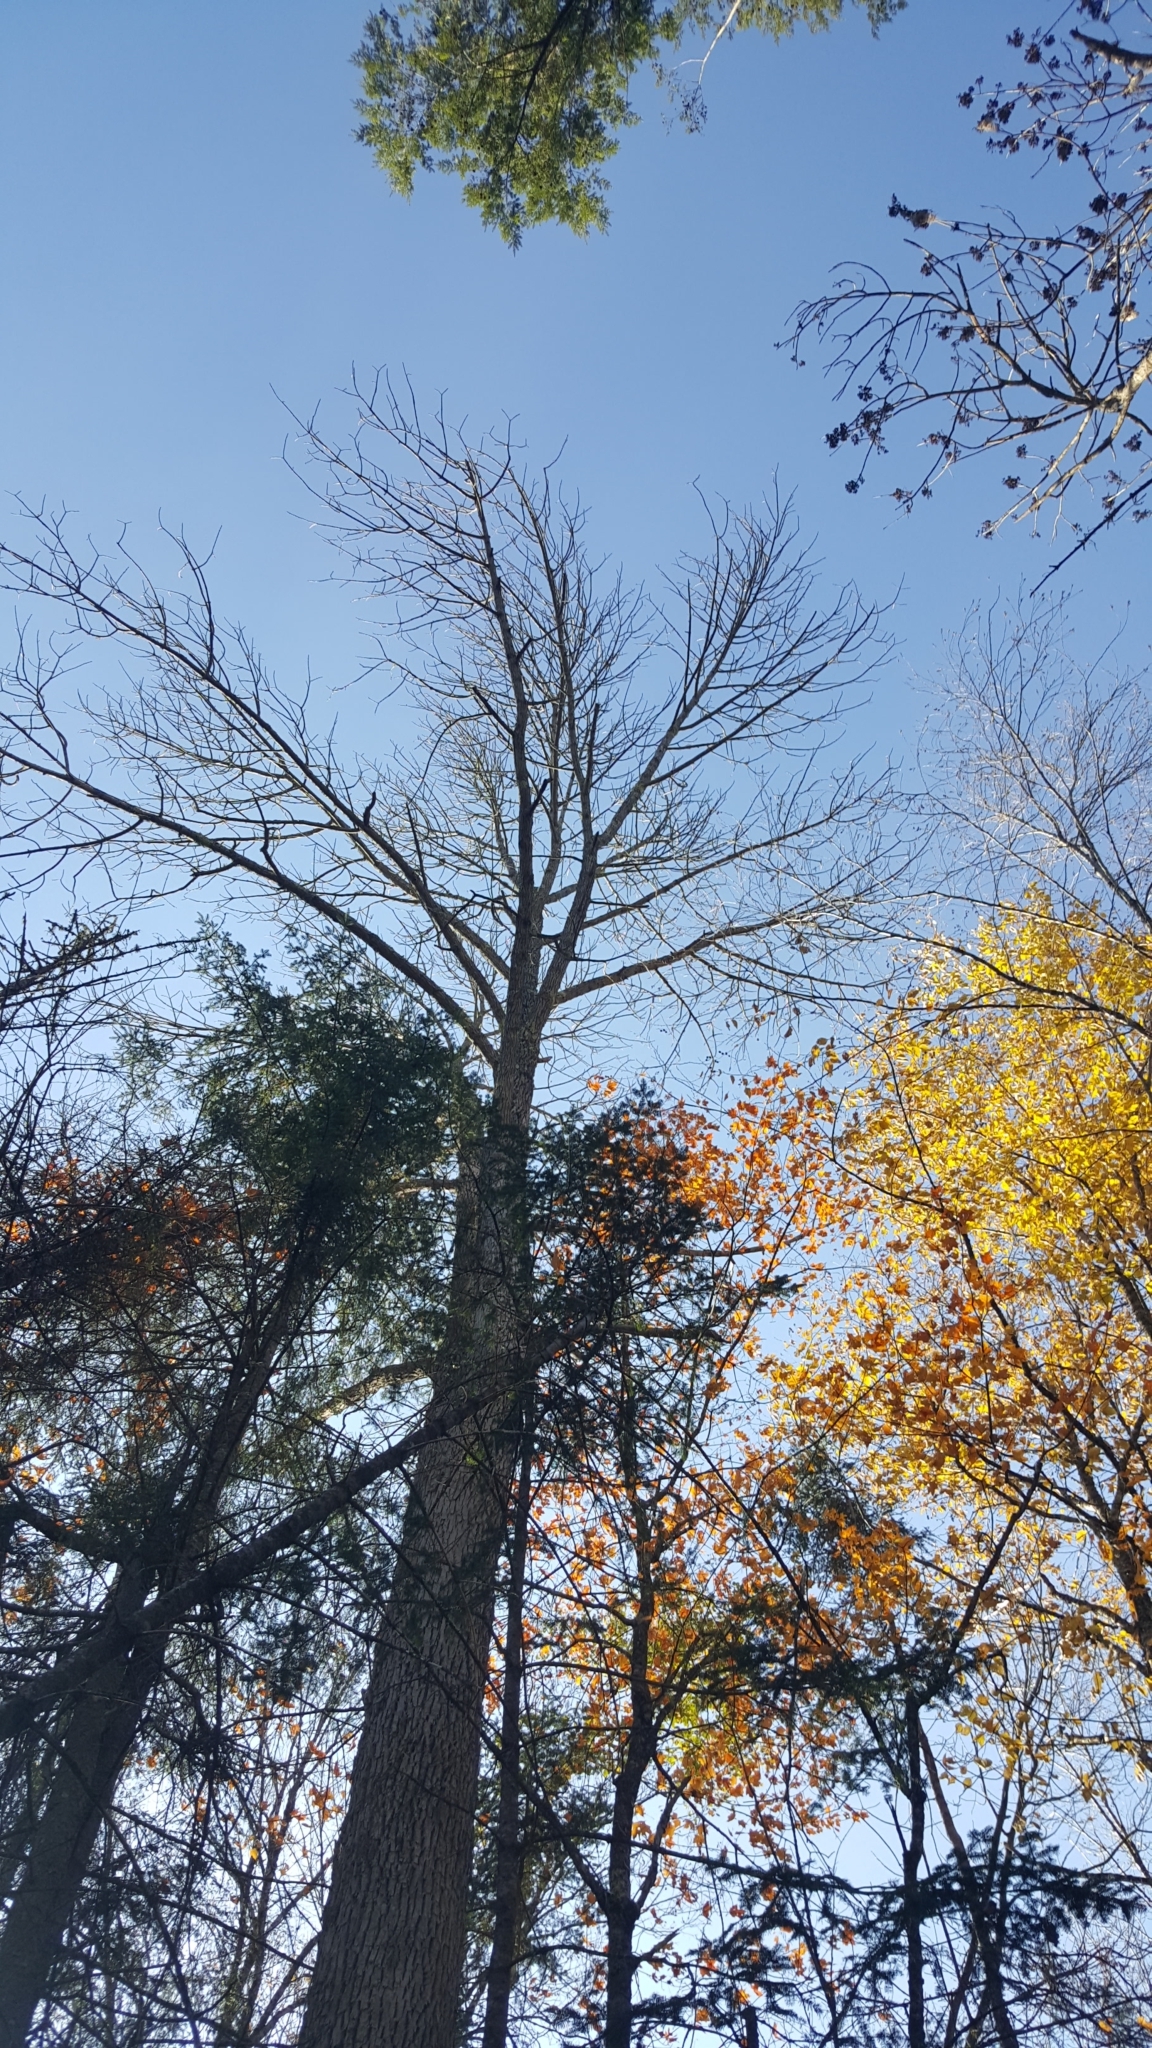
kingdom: Plantae
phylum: Tracheophyta
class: Magnoliopsida
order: Lamiales
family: Oleaceae
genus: Fraxinus
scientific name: Fraxinus americana
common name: White ash
